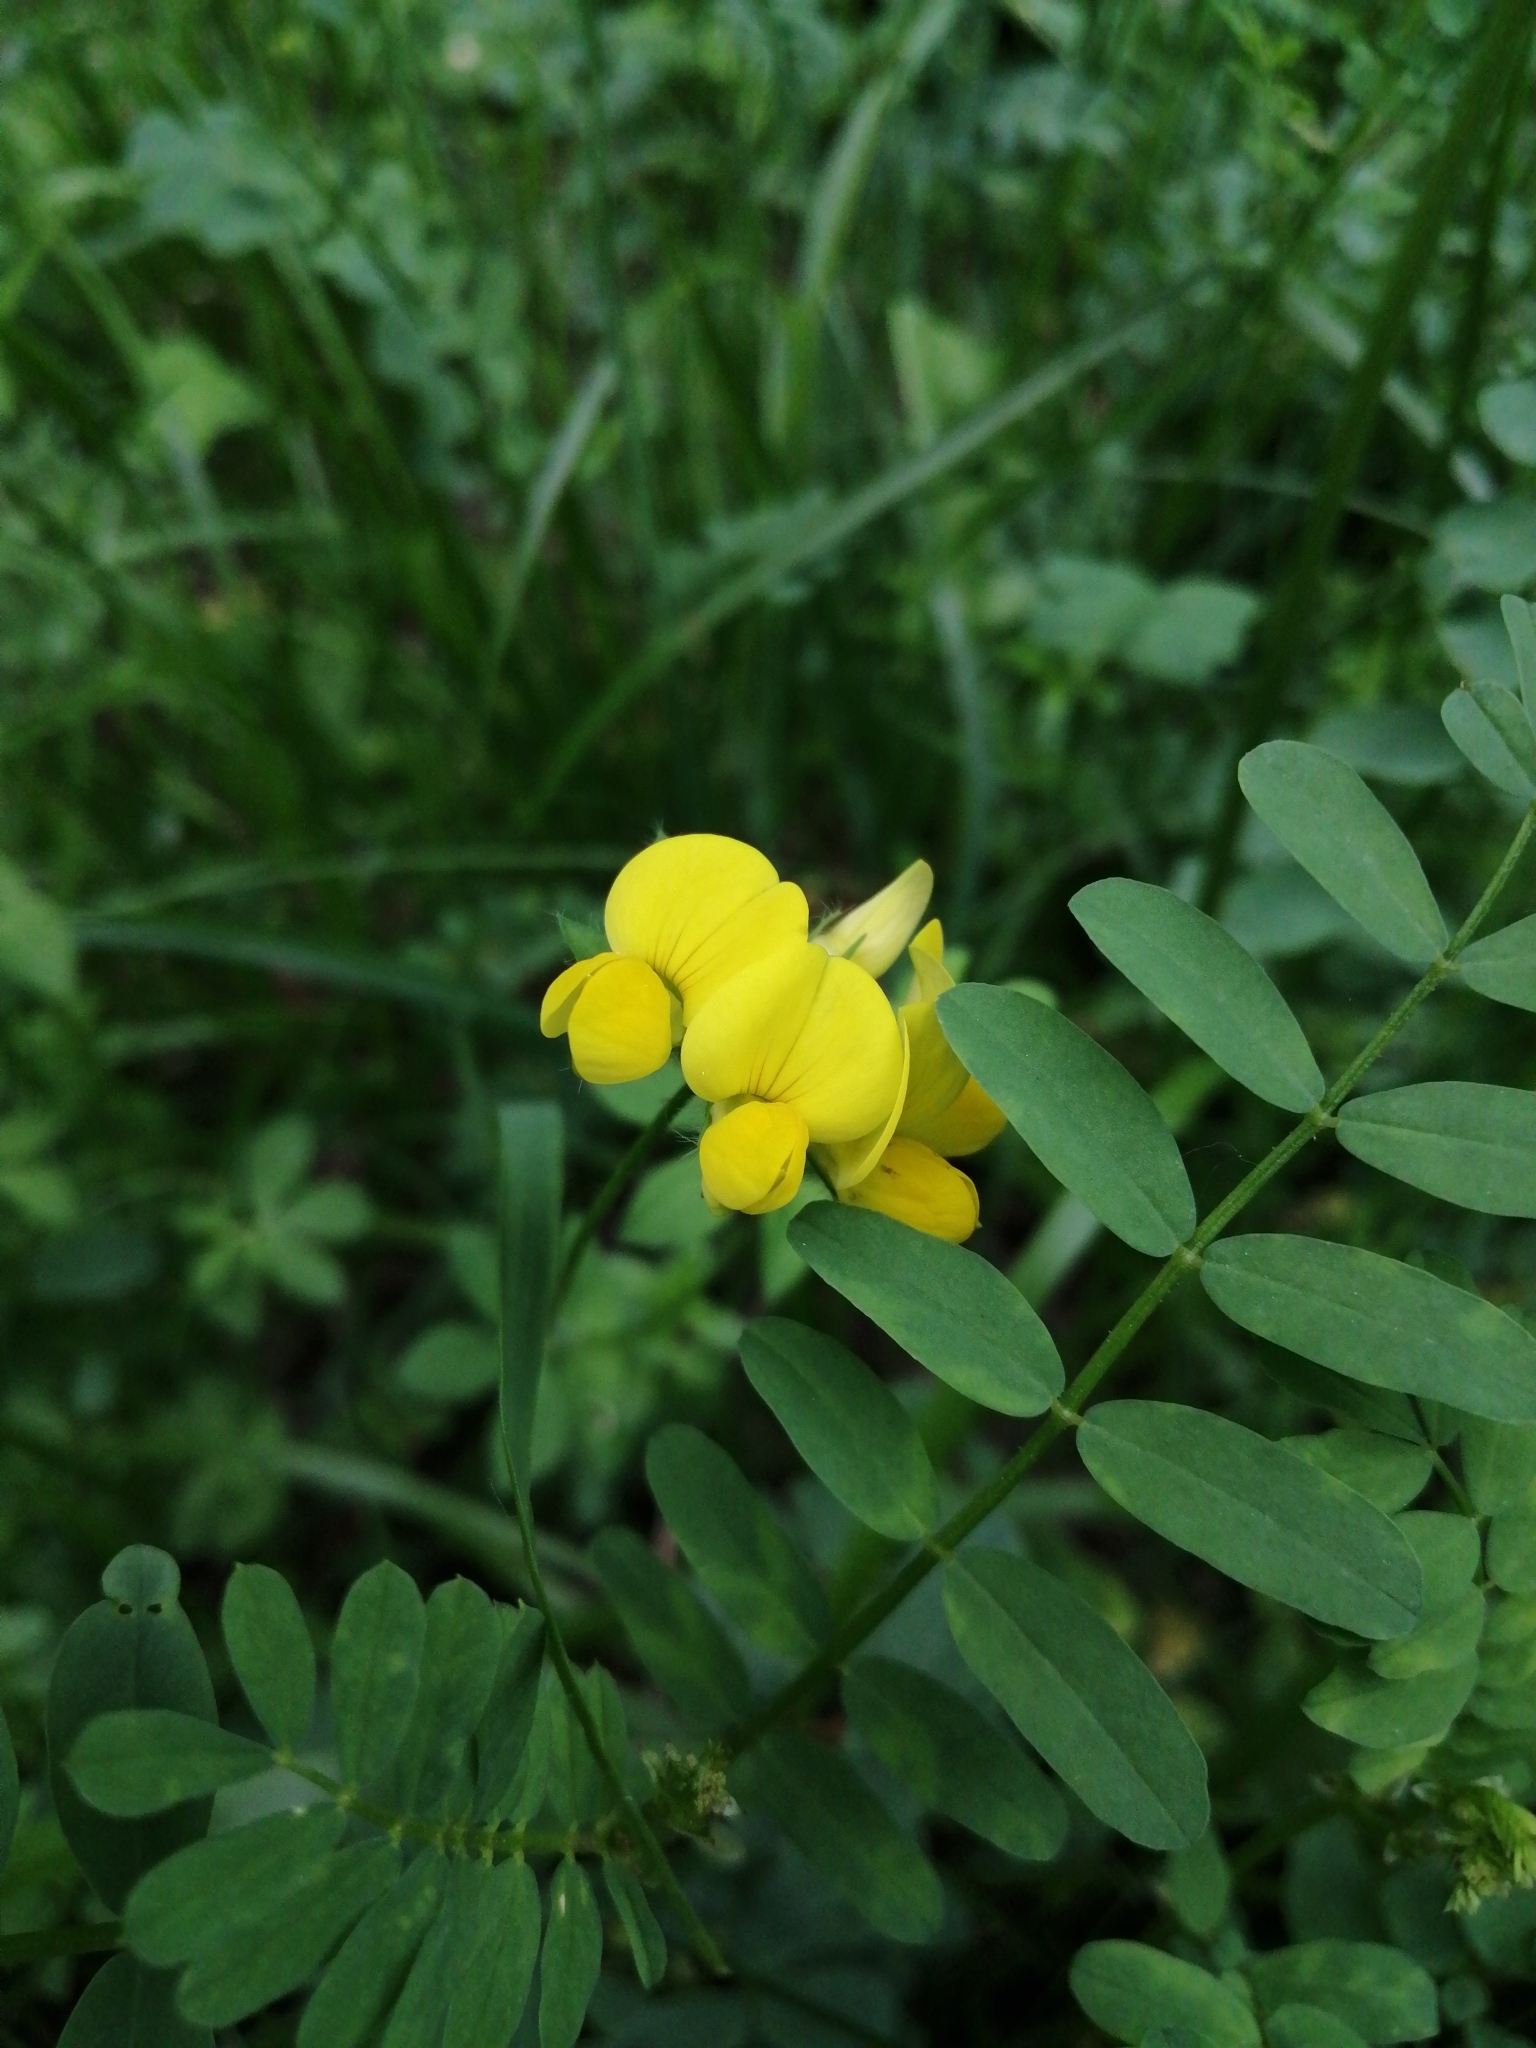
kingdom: Plantae
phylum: Tracheophyta
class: Magnoliopsida
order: Fabales
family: Fabaceae
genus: Lotus
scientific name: Lotus corniculatus
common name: Common bird's-foot-trefoil
